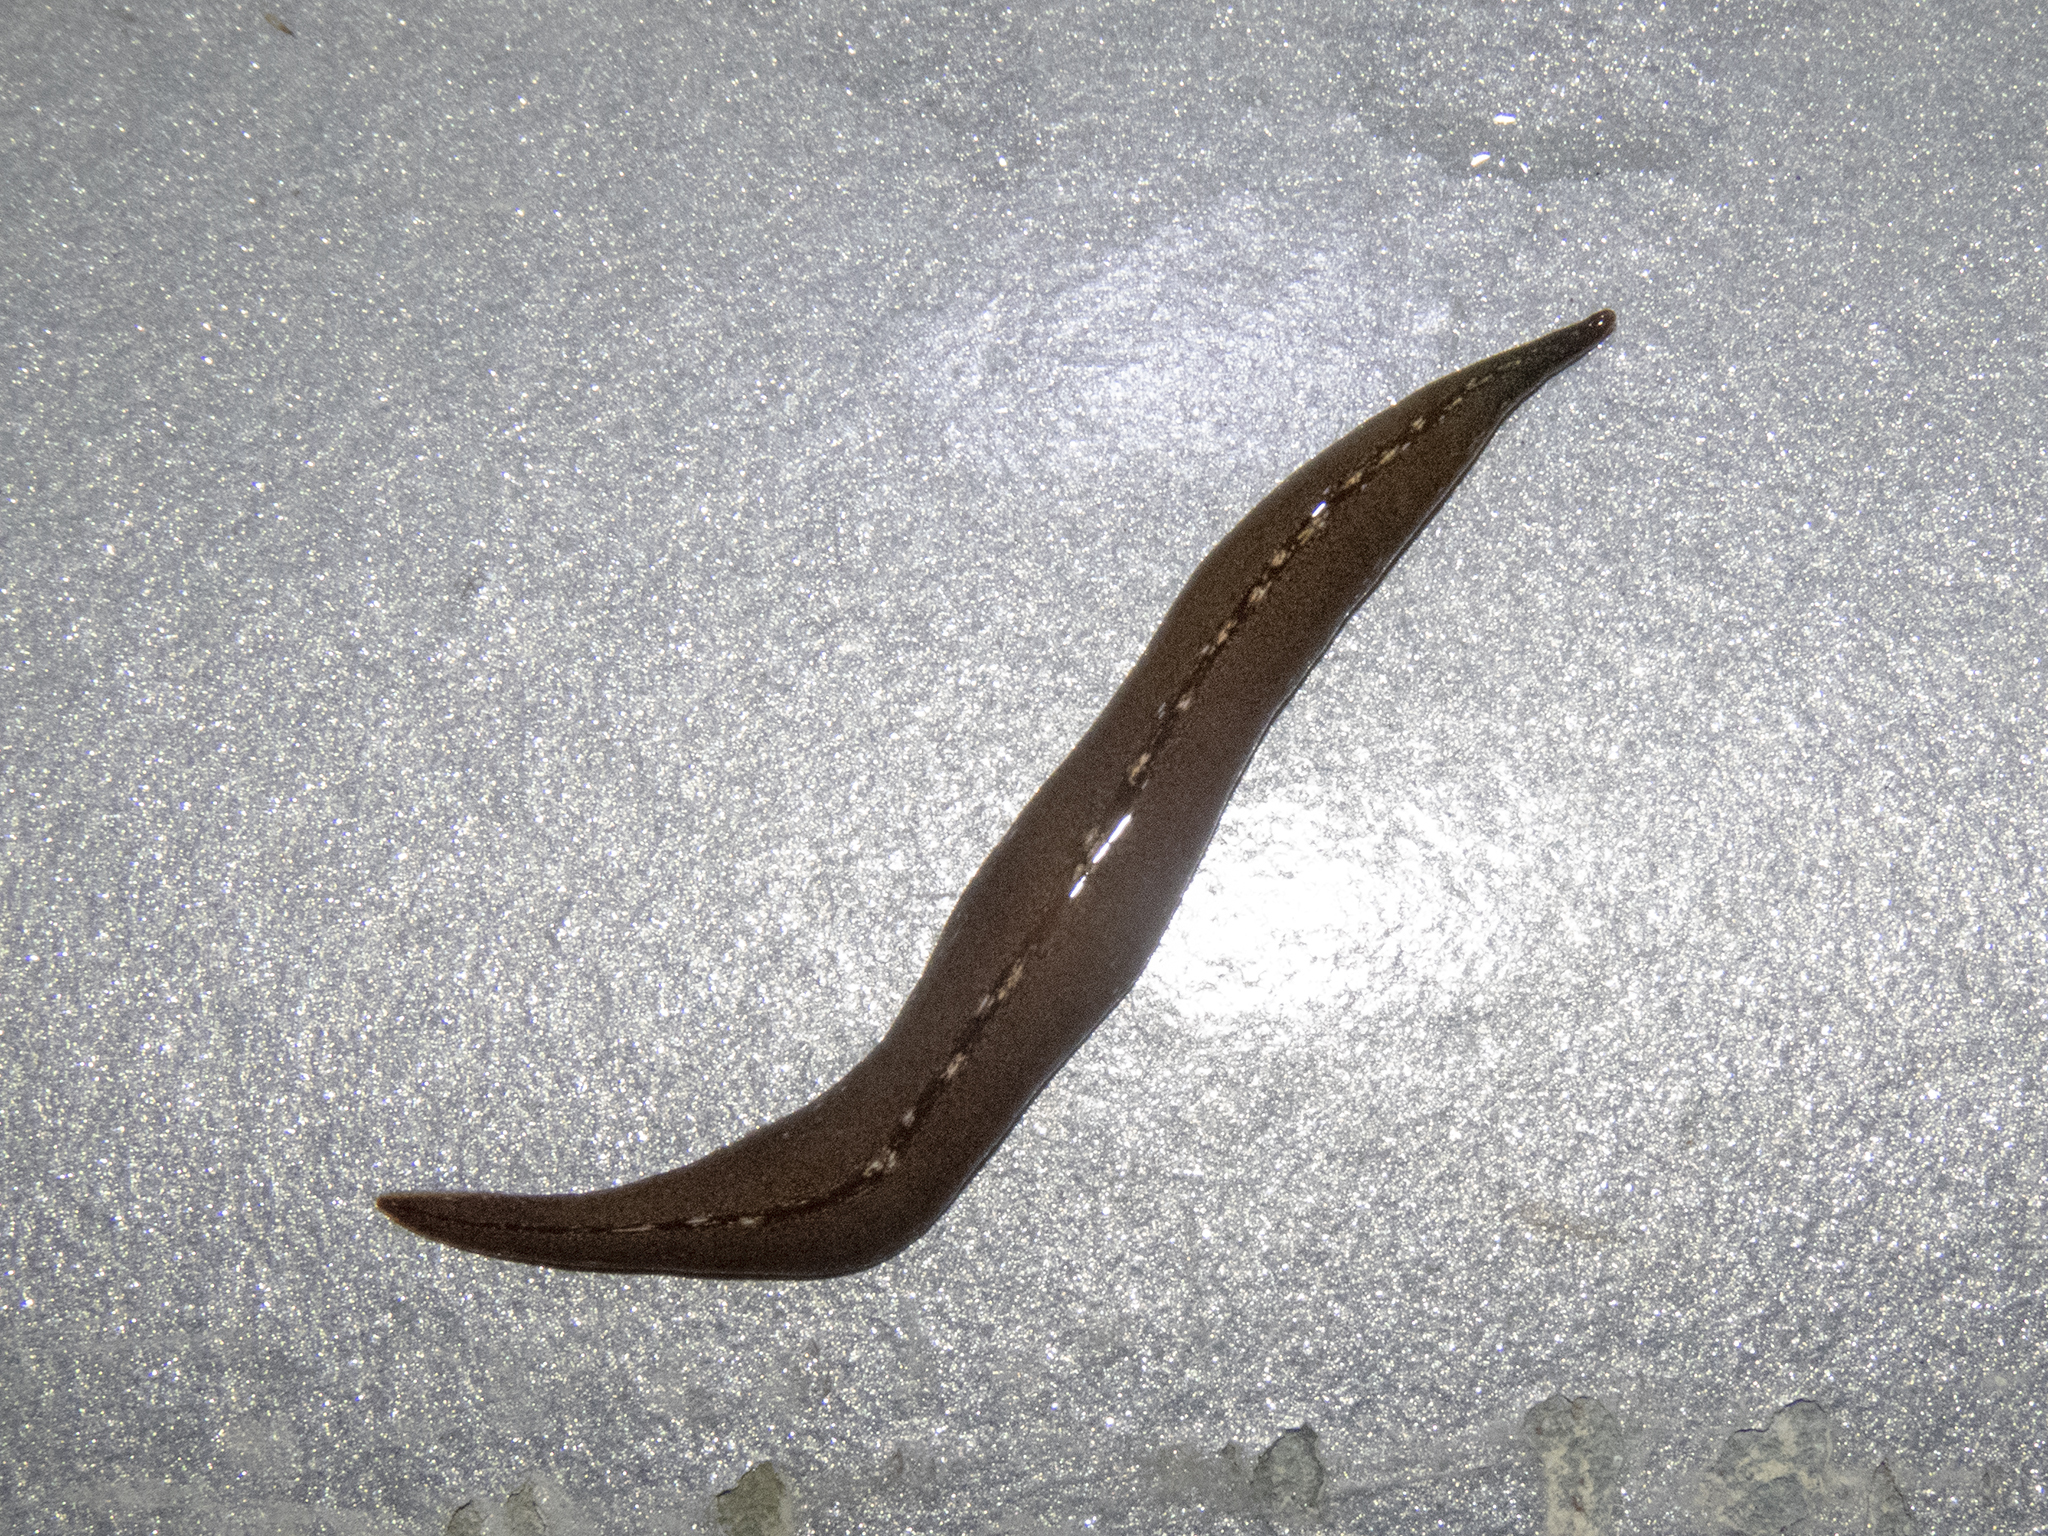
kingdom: Animalia
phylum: Platyhelminthes
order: Tricladida
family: Geoplanidae
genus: Newzealandia
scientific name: Newzealandia graffii
